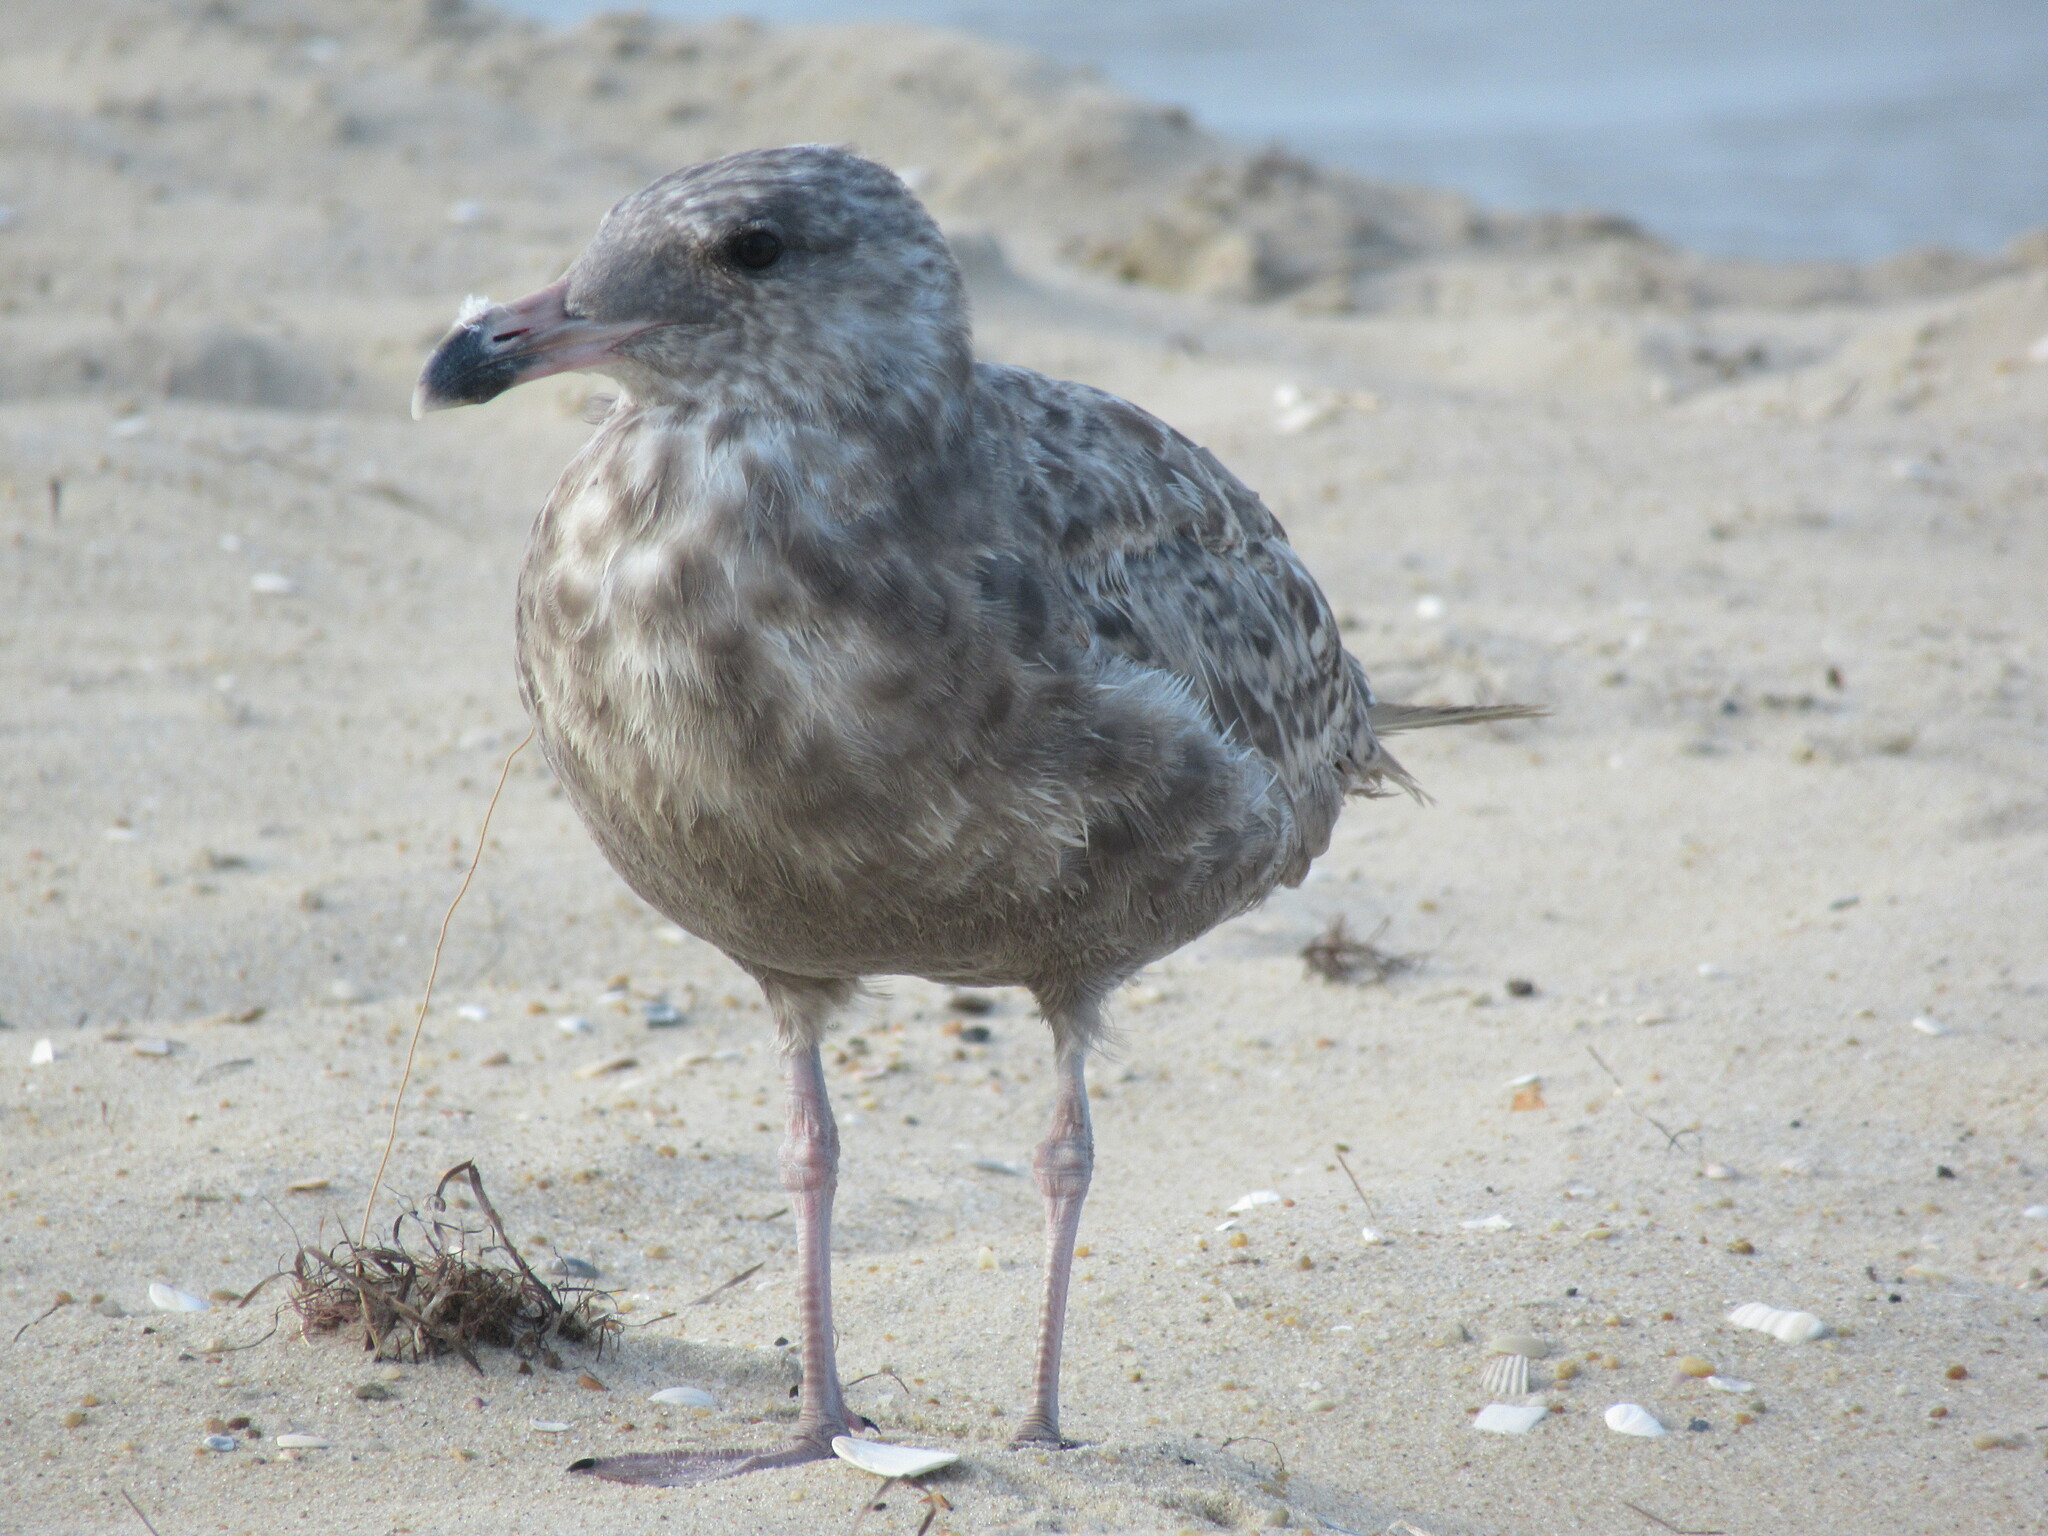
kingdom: Animalia
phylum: Chordata
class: Aves
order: Charadriiformes
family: Laridae
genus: Leucophaeus
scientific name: Leucophaeus atricilla
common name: Laughing gull
